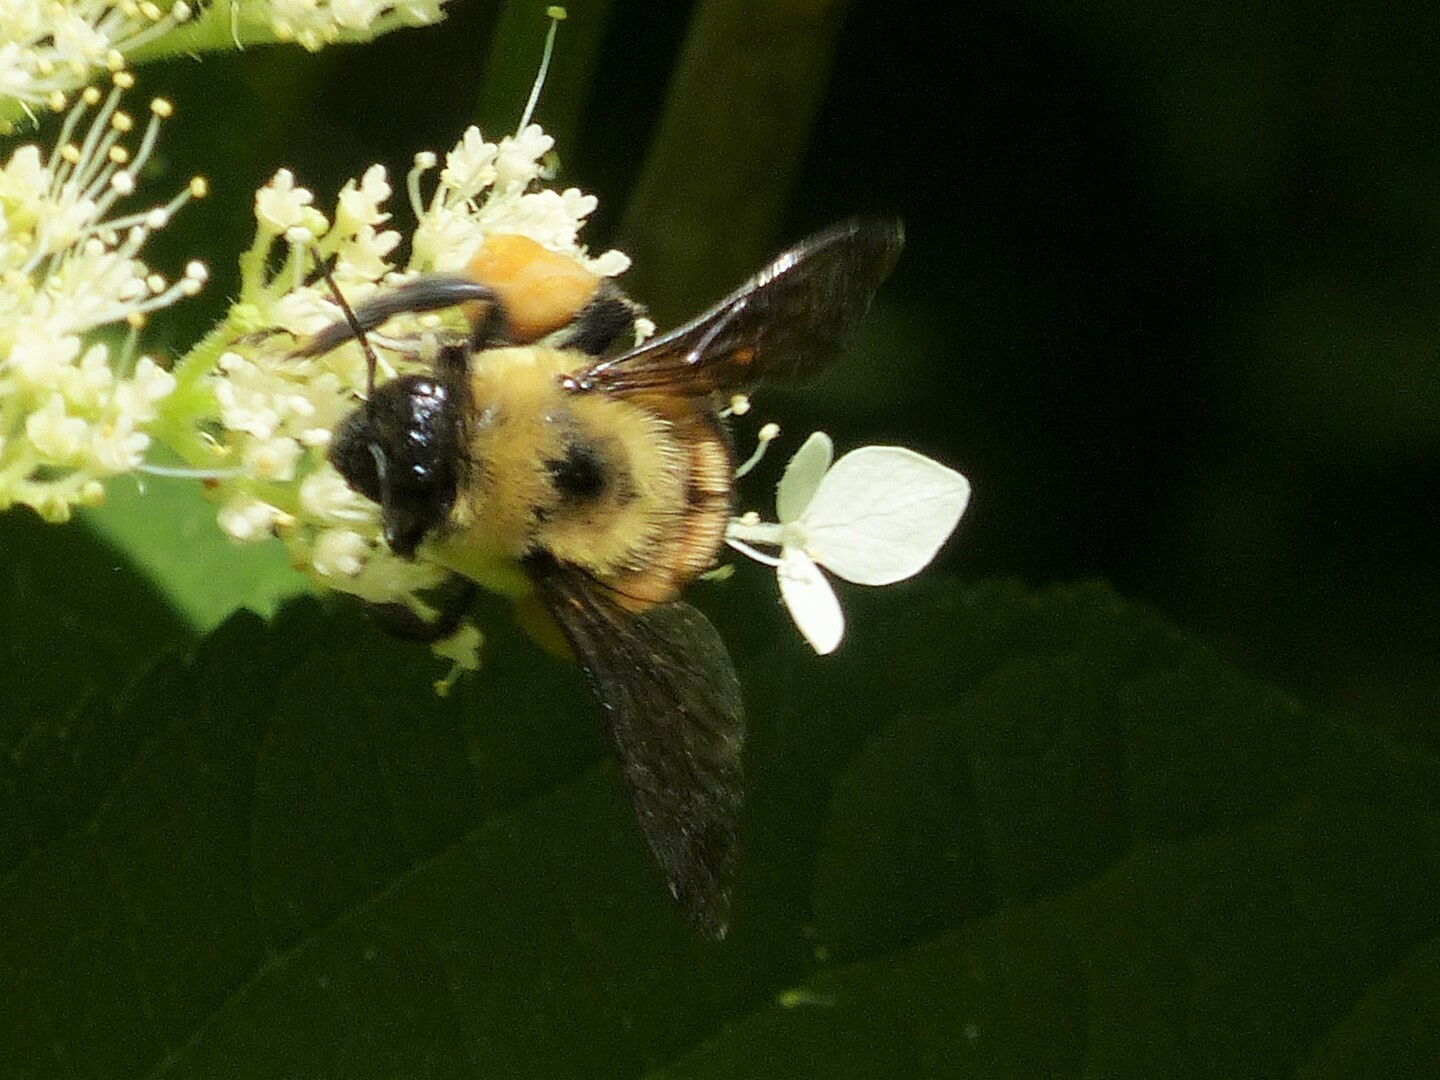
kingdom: Animalia
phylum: Arthropoda
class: Insecta
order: Hymenoptera
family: Apidae
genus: Bombus
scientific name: Bombus griseocollis
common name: Brown-belted bumble bee
